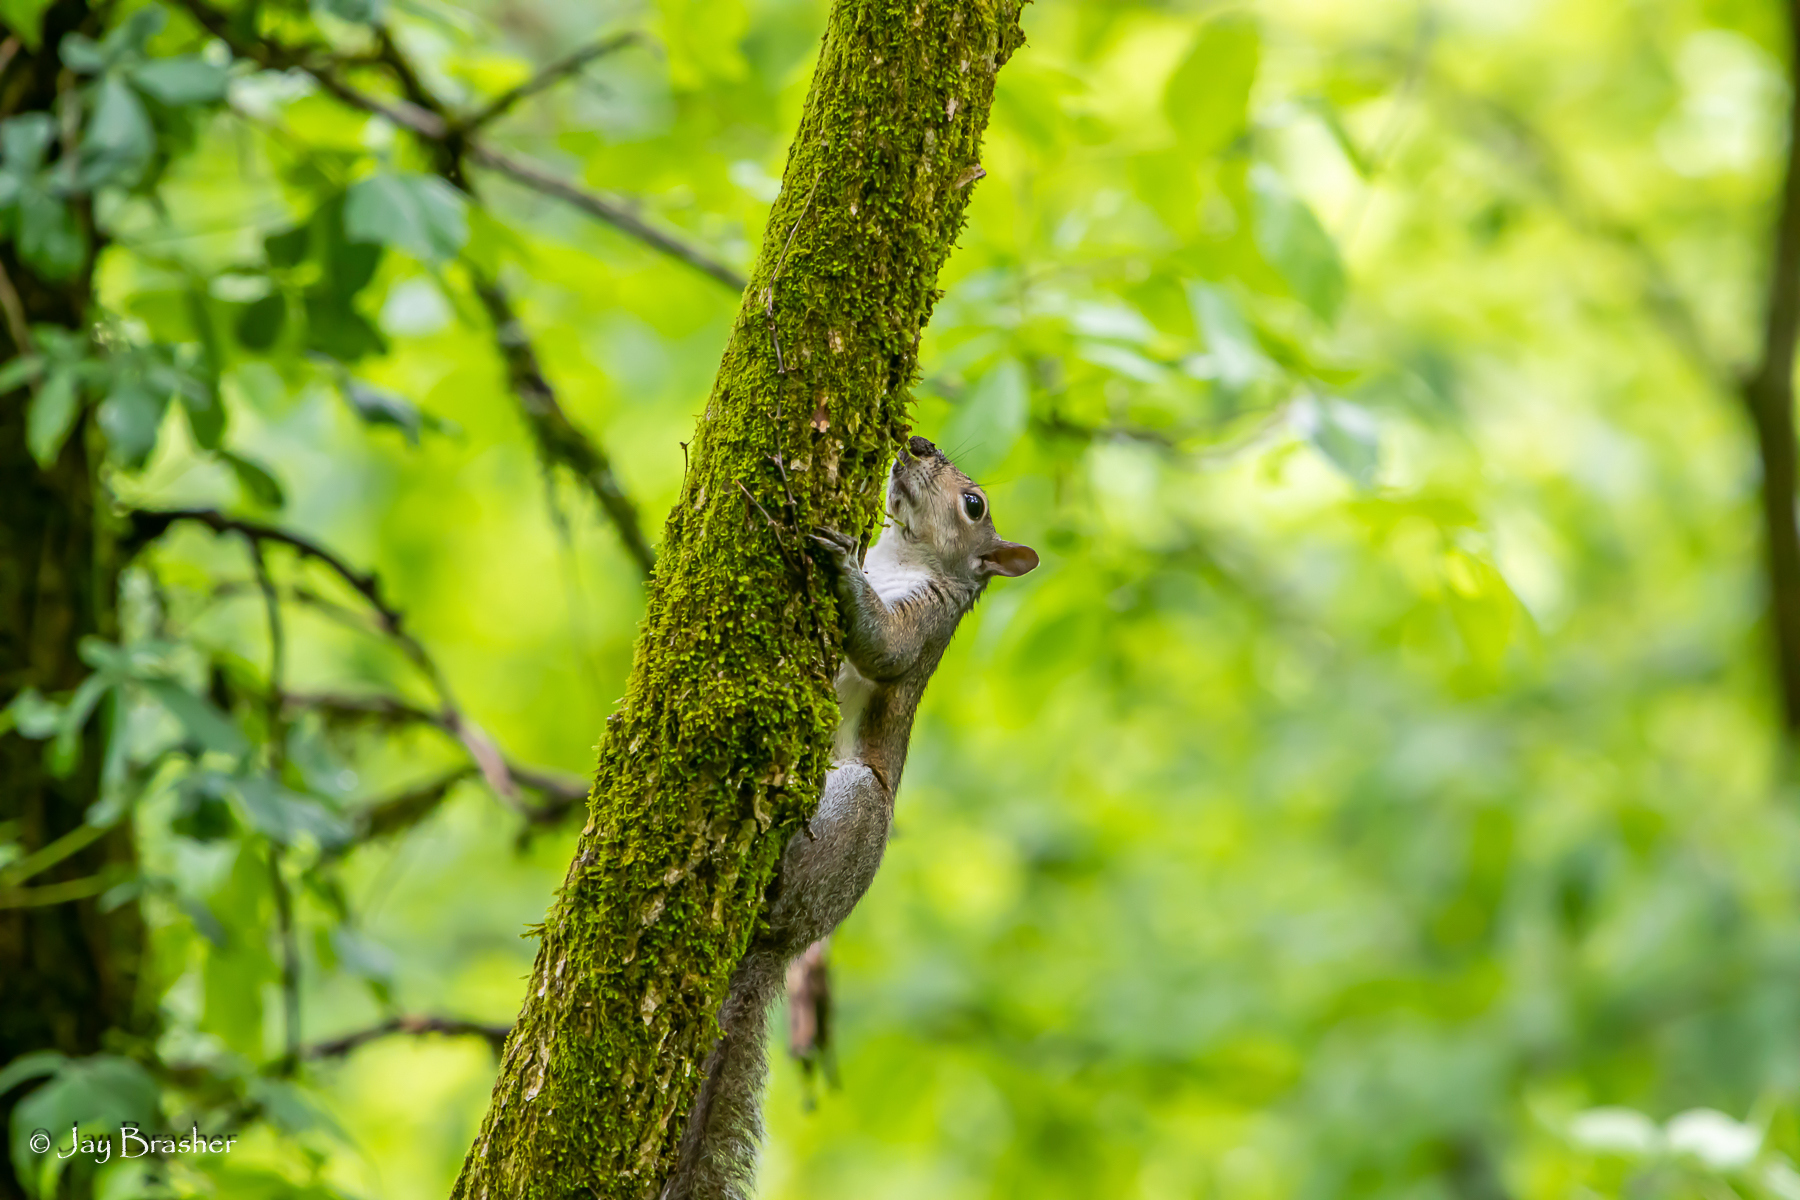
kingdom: Animalia
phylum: Chordata
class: Mammalia
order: Rodentia
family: Sciuridae
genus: Sciurus
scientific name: Sciurus carolinensis
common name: Eastern gray squirrel
